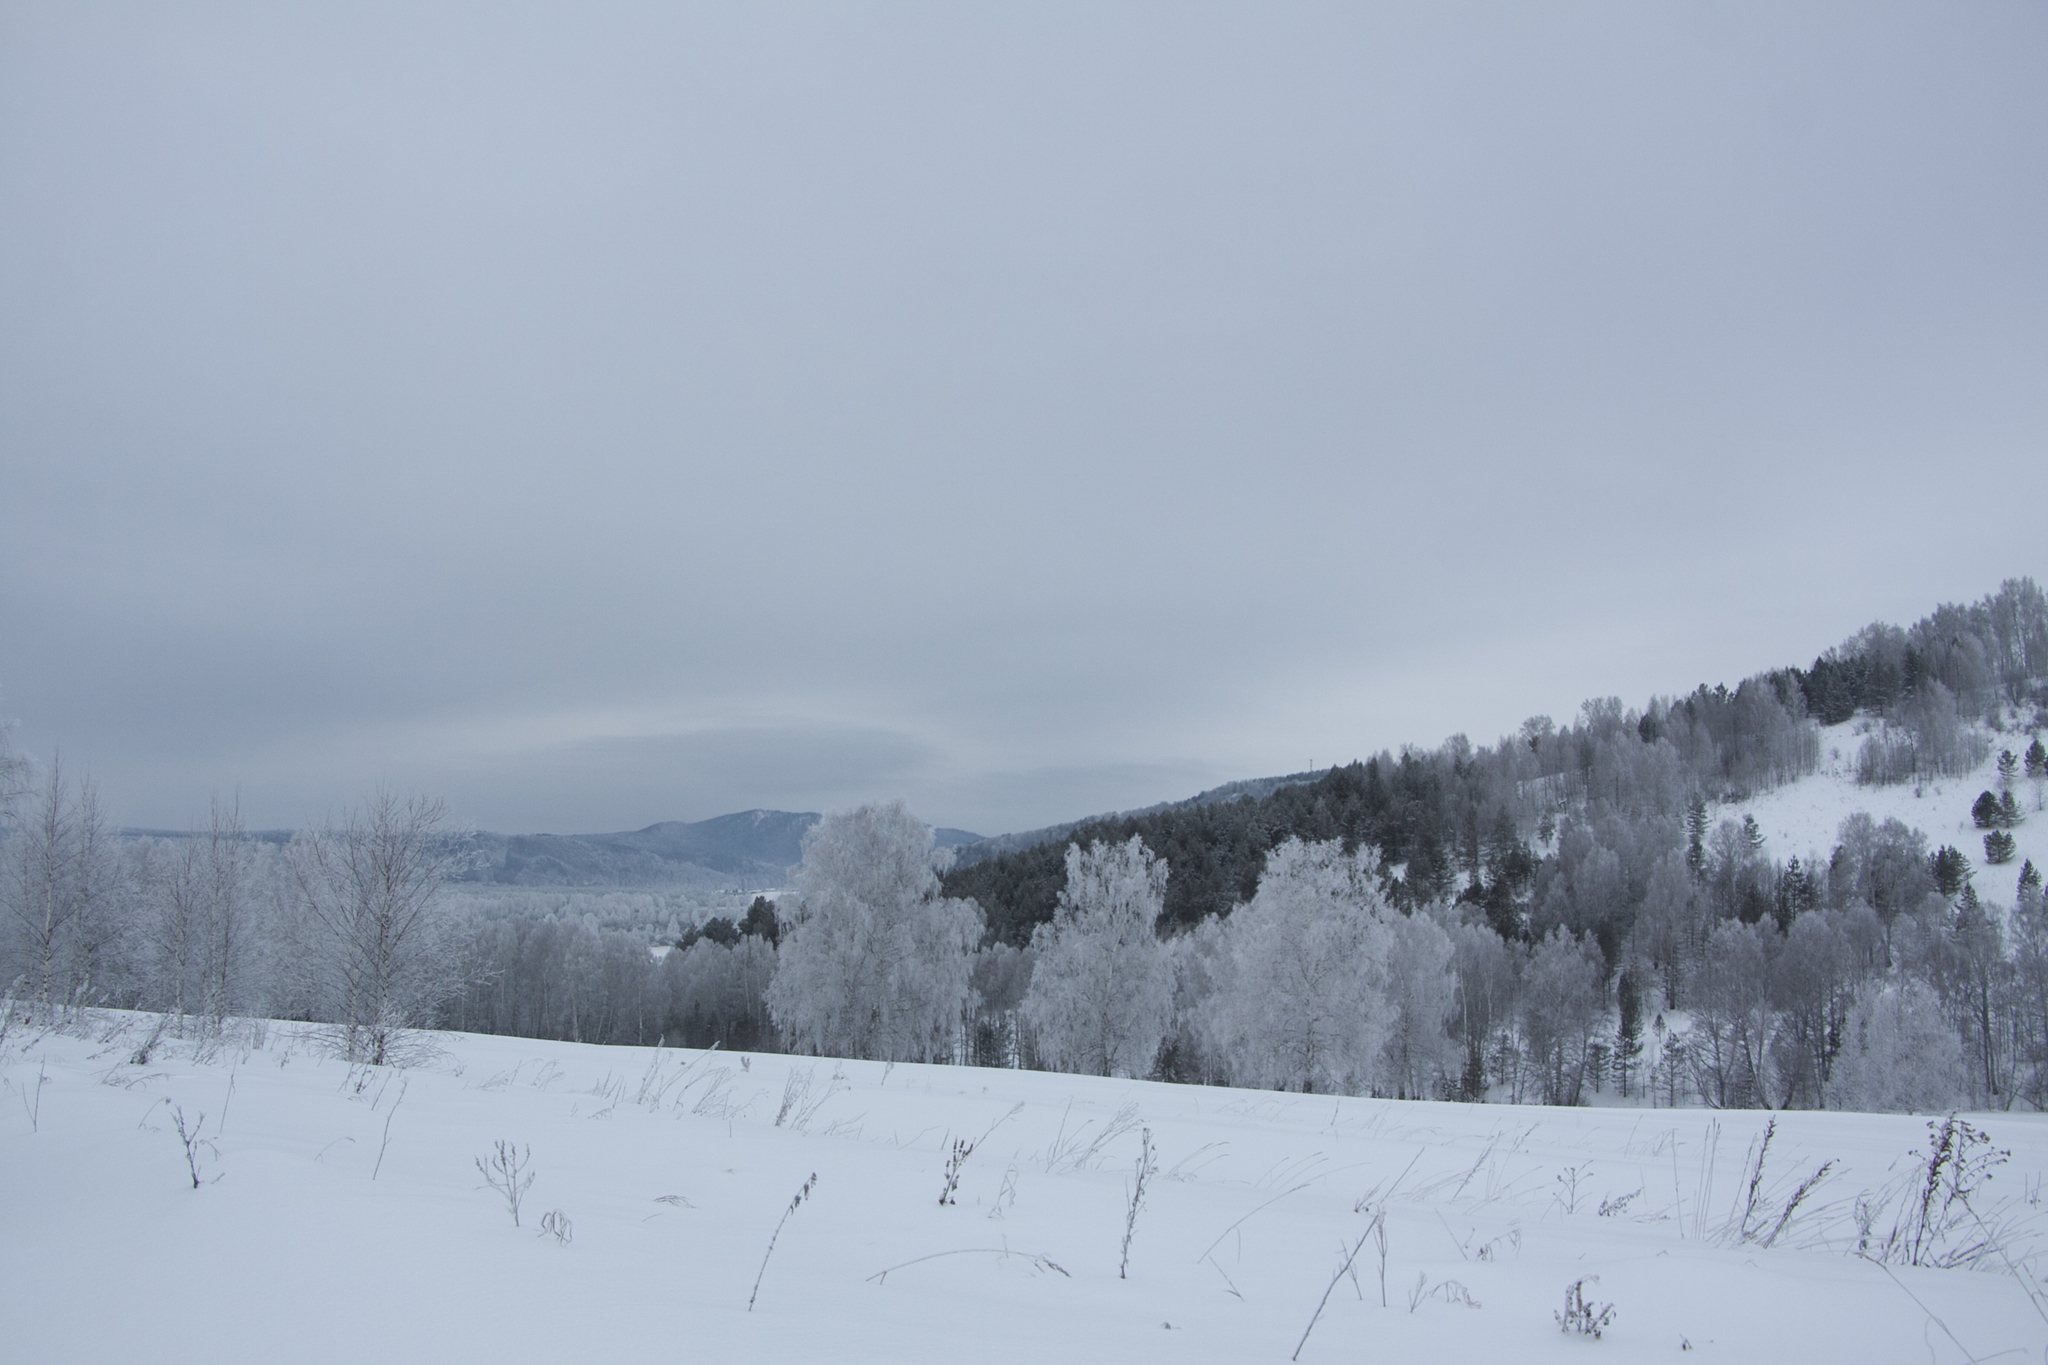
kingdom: Plantae
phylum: Tracheophyta
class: Pinopsida
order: Pinales
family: Pinaceae
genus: Pinus
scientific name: Pinus sylvestris
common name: Scots pine
